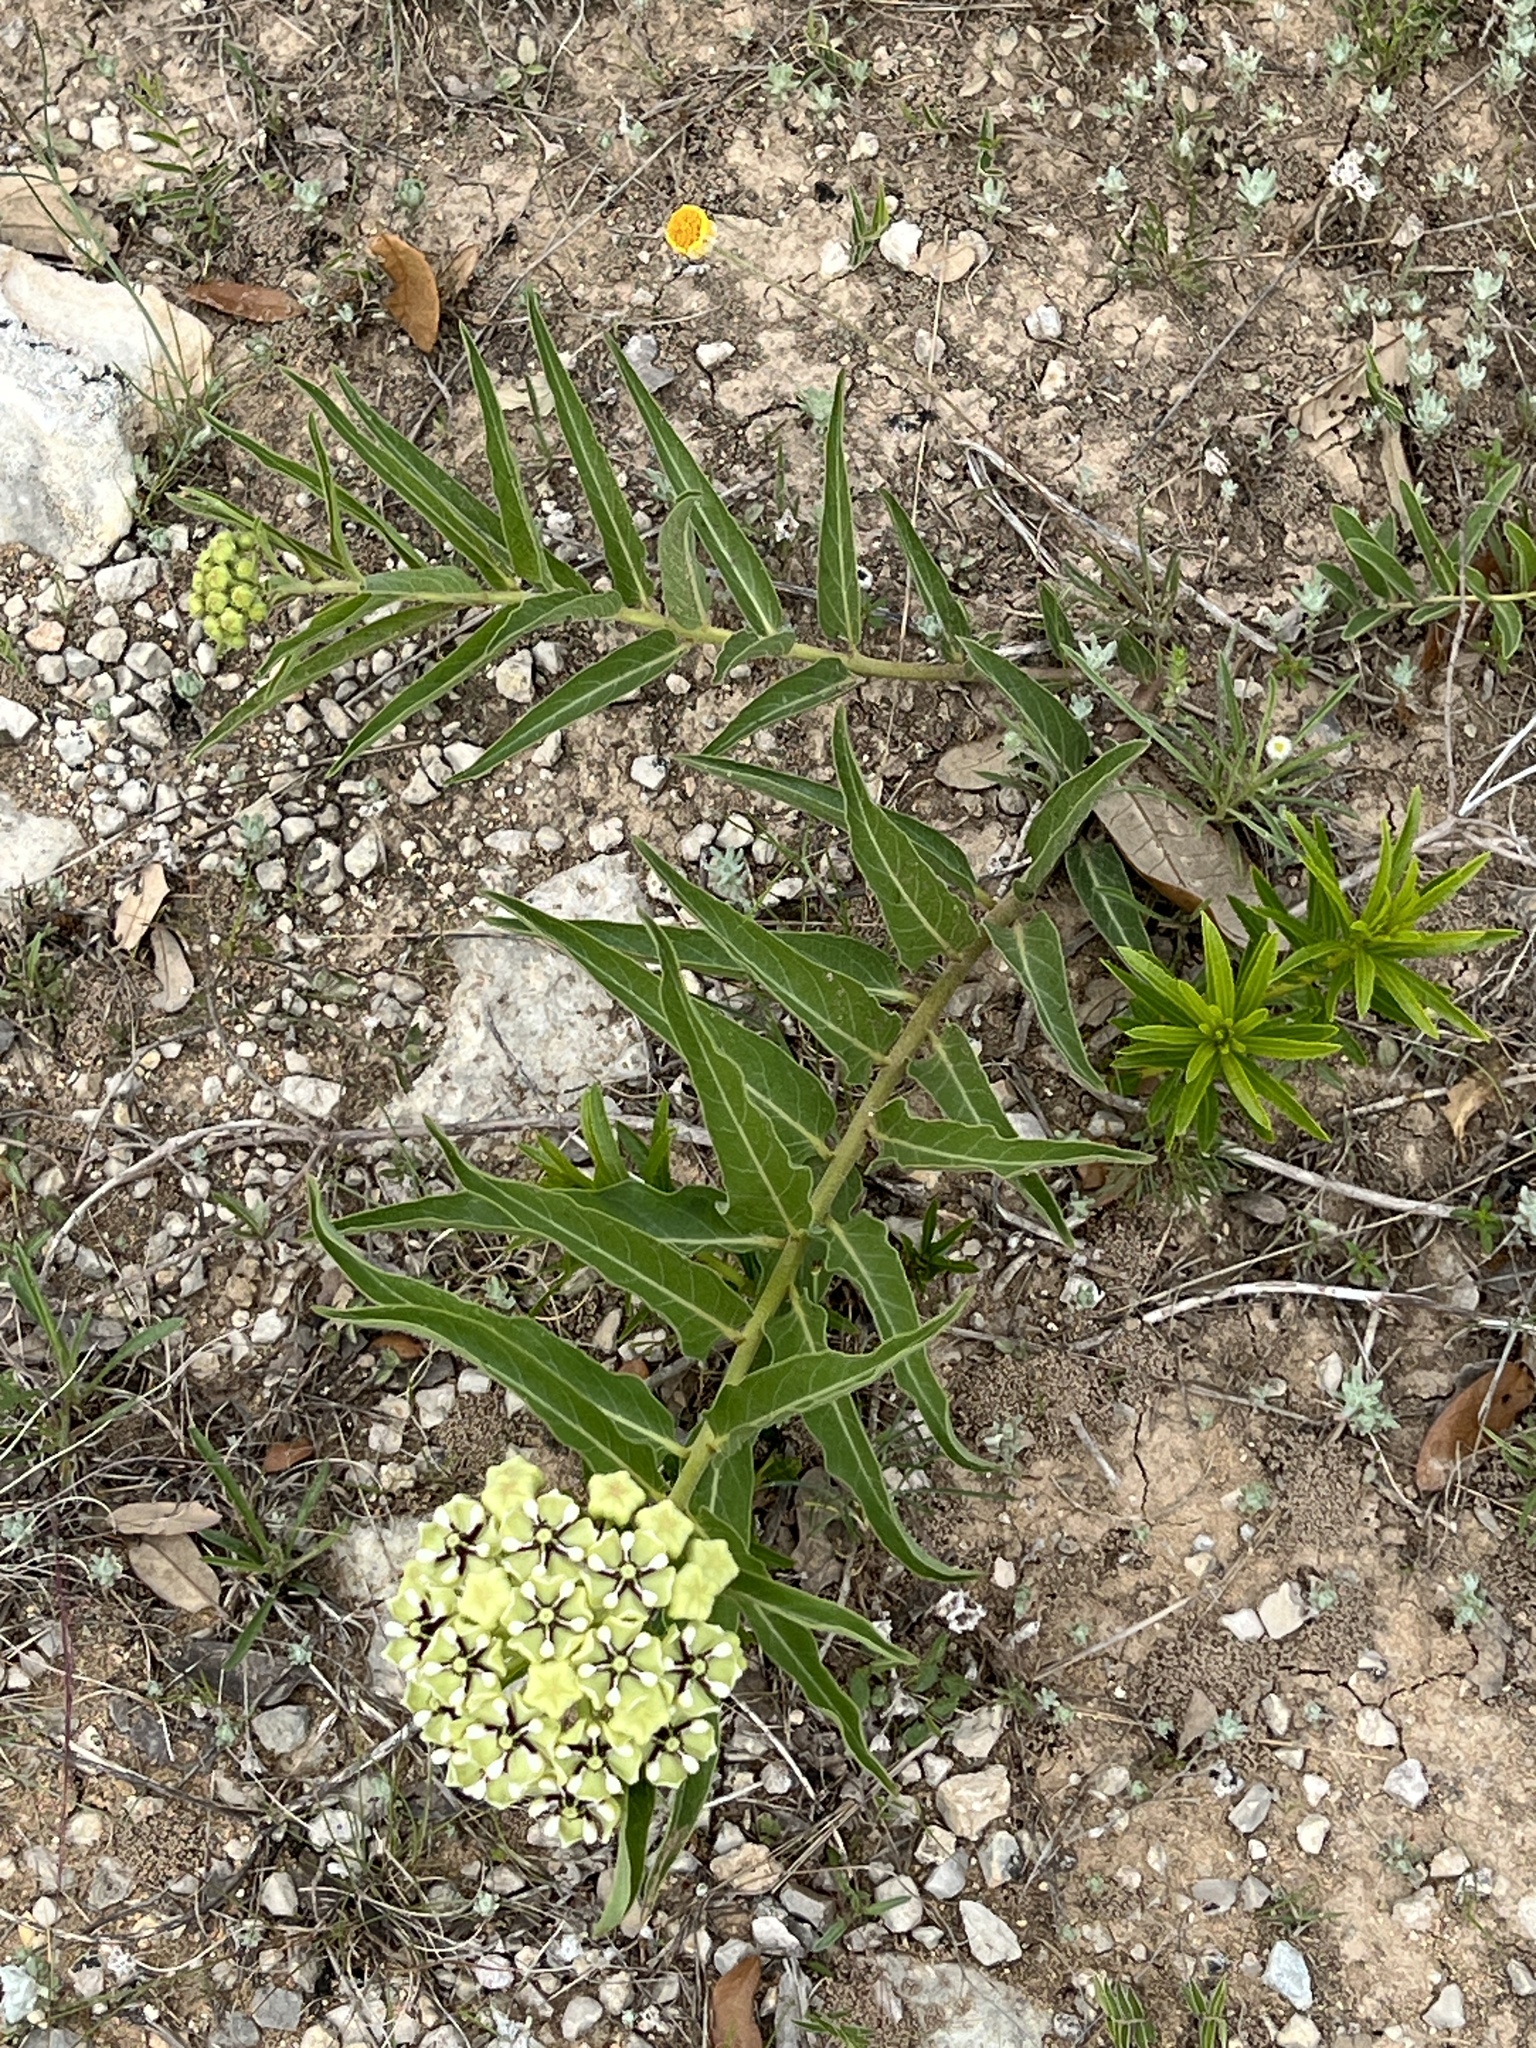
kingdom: Plantae
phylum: Tracheophyta
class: Magnoliopsida
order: Gentianales
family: Apocynaceae
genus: Asclepias
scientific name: Asclepias asperula
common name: Antelope horns
